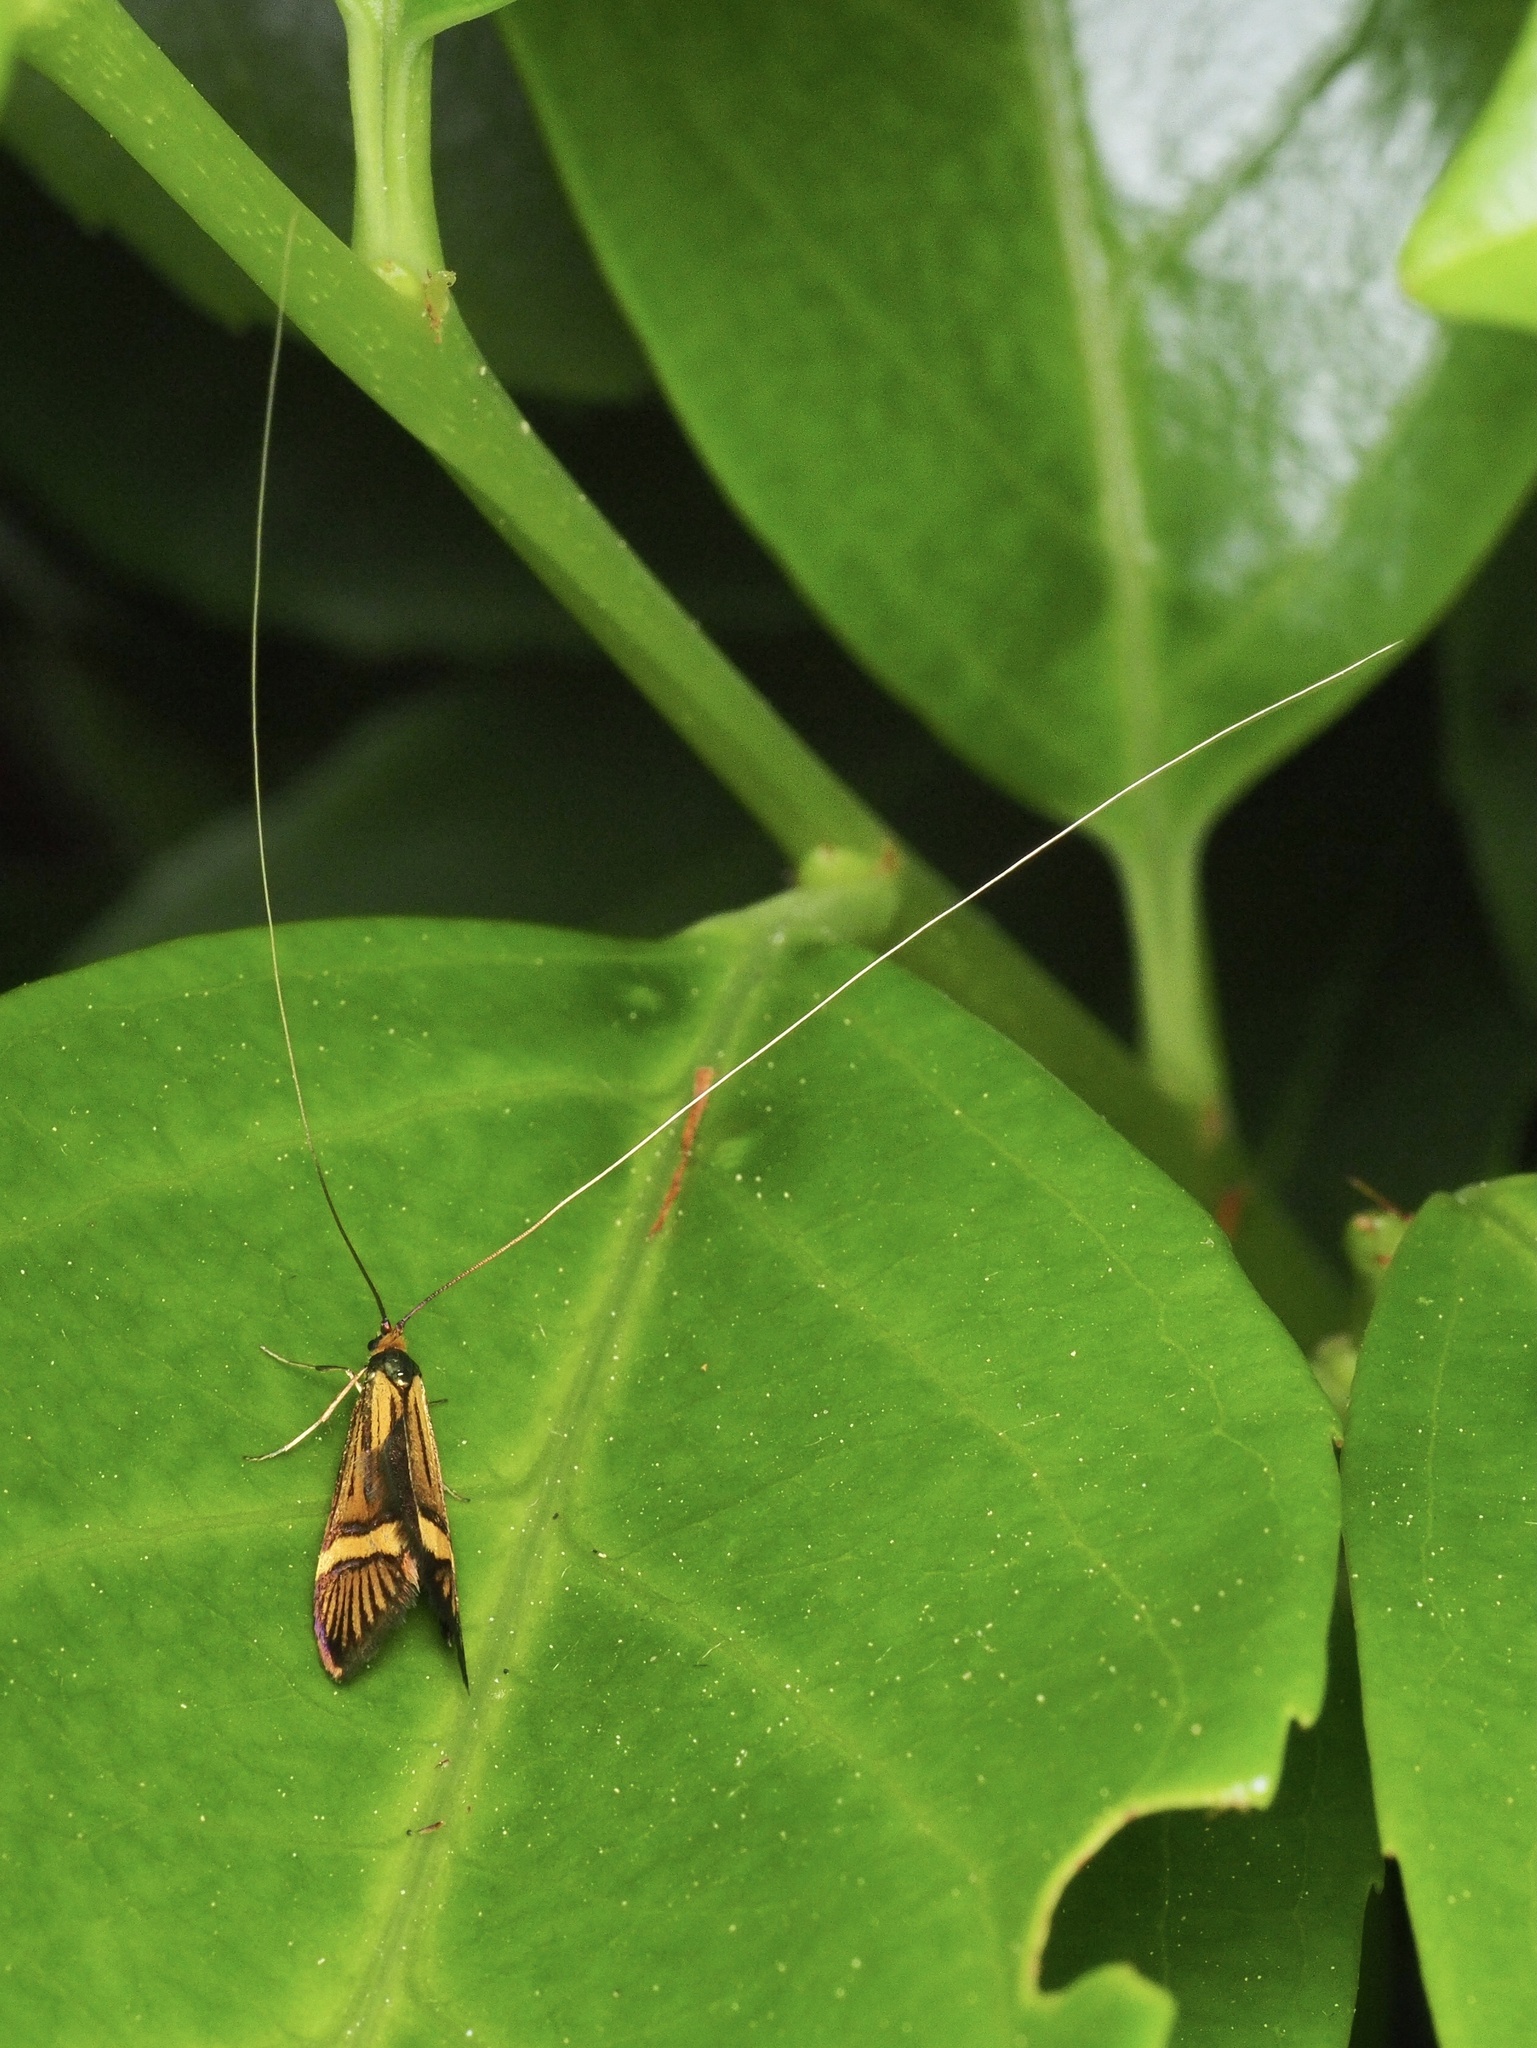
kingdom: Animalia
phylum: Arthropoda
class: Insecta
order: Lepidoptera
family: Adelidae
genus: Nemophora
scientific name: Nemophora
